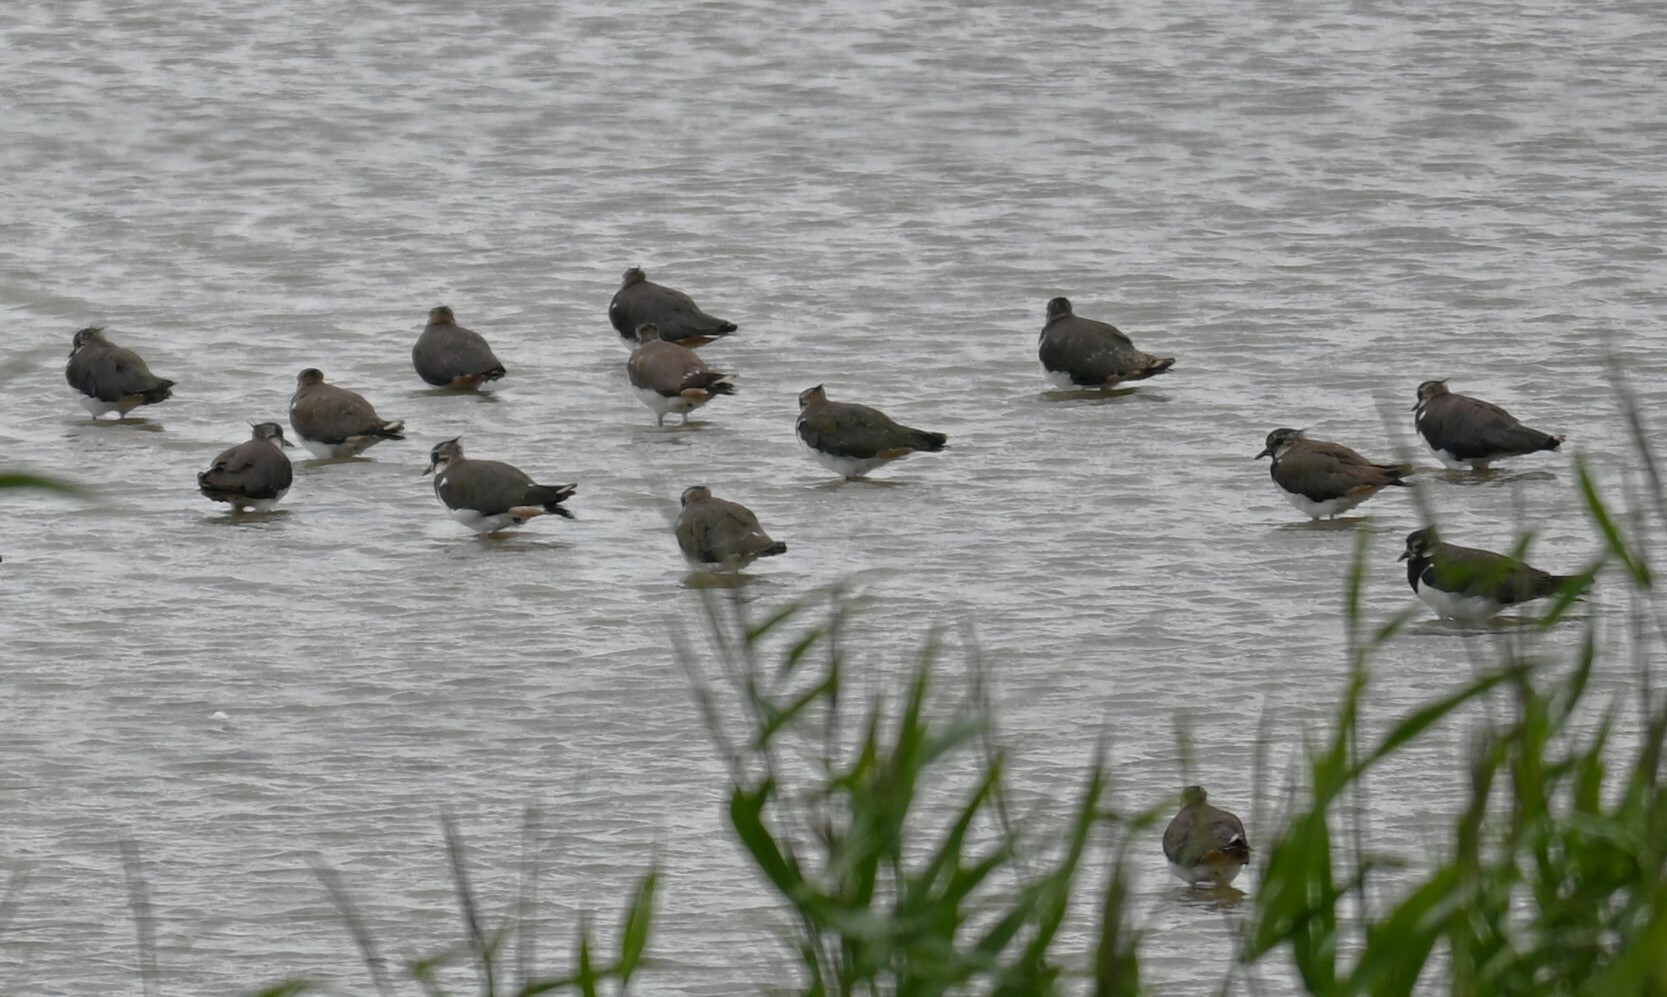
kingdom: Animalia
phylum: Chordata
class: Aves
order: Charadriiformes
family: Charadriidae
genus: Vanellus
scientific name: Vanellus vanellus
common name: Northern lapwing
